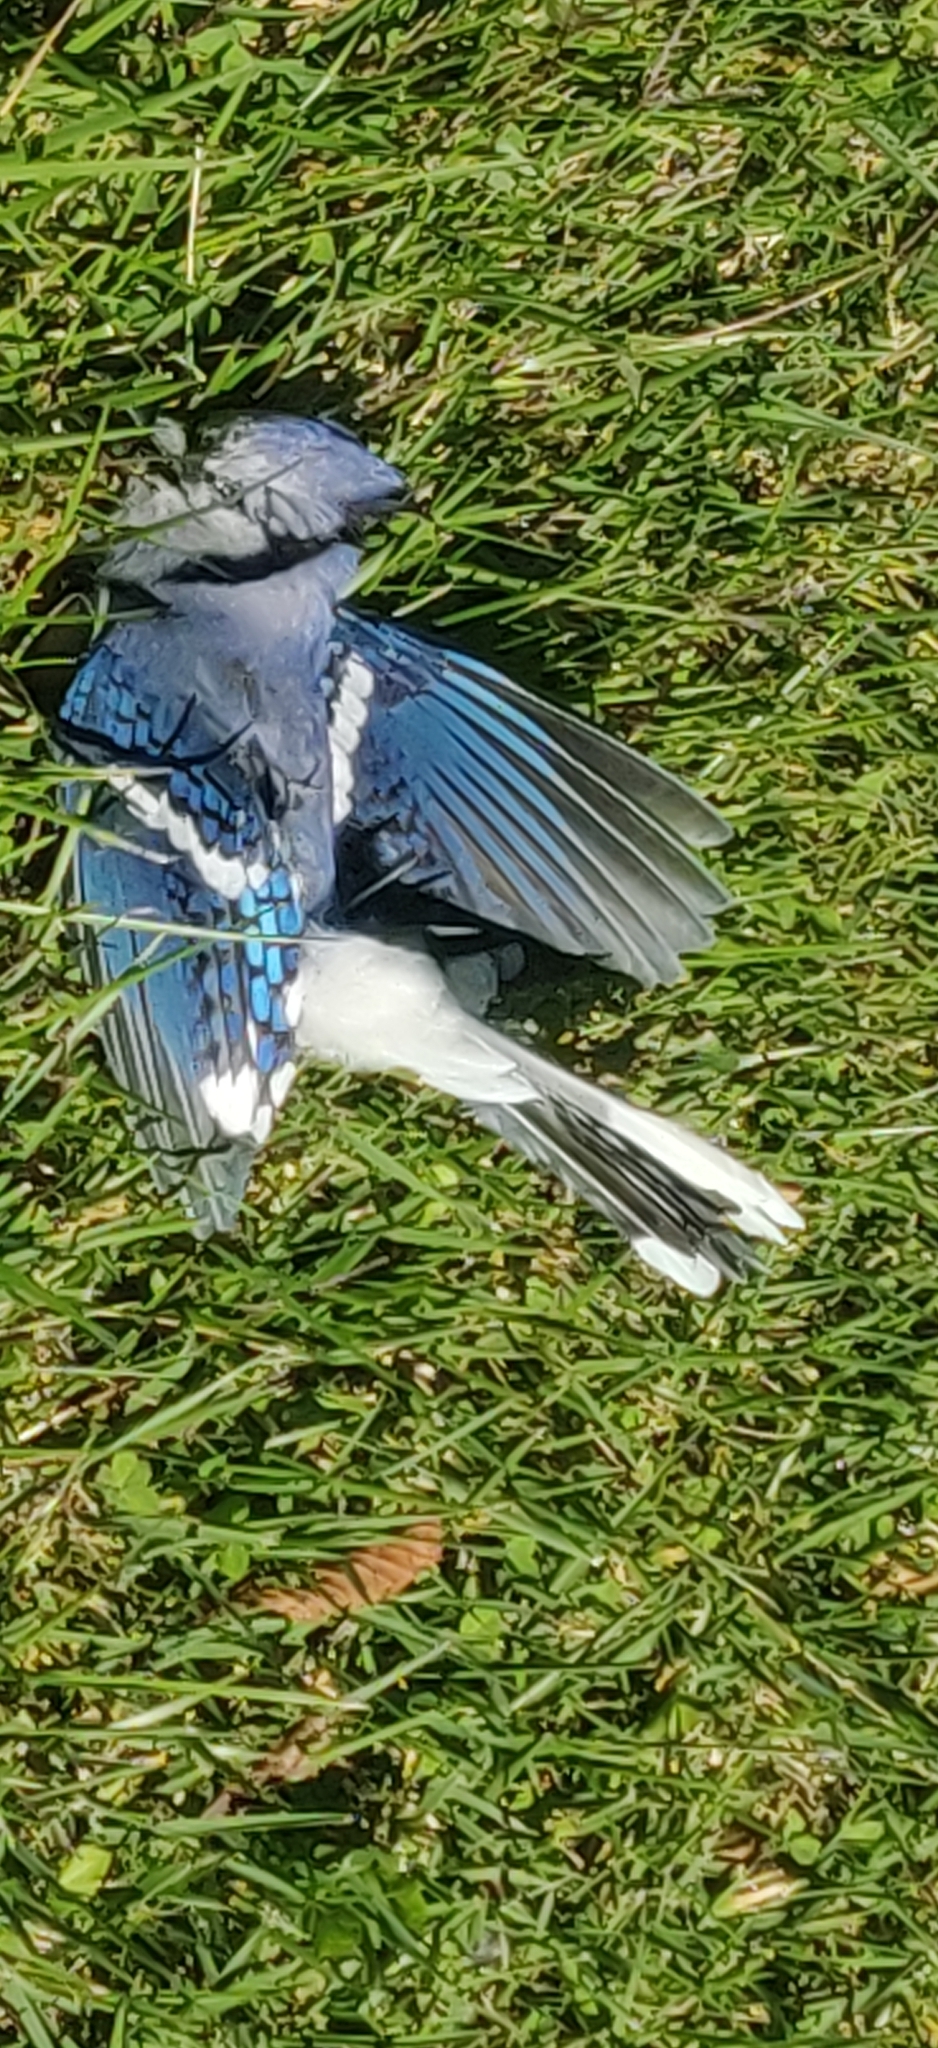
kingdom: Animalia
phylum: Chordata
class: Aves
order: Passeriformes
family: Corvidae
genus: Cyanocitta
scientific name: Cyanocitta cristata
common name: Blue jay
